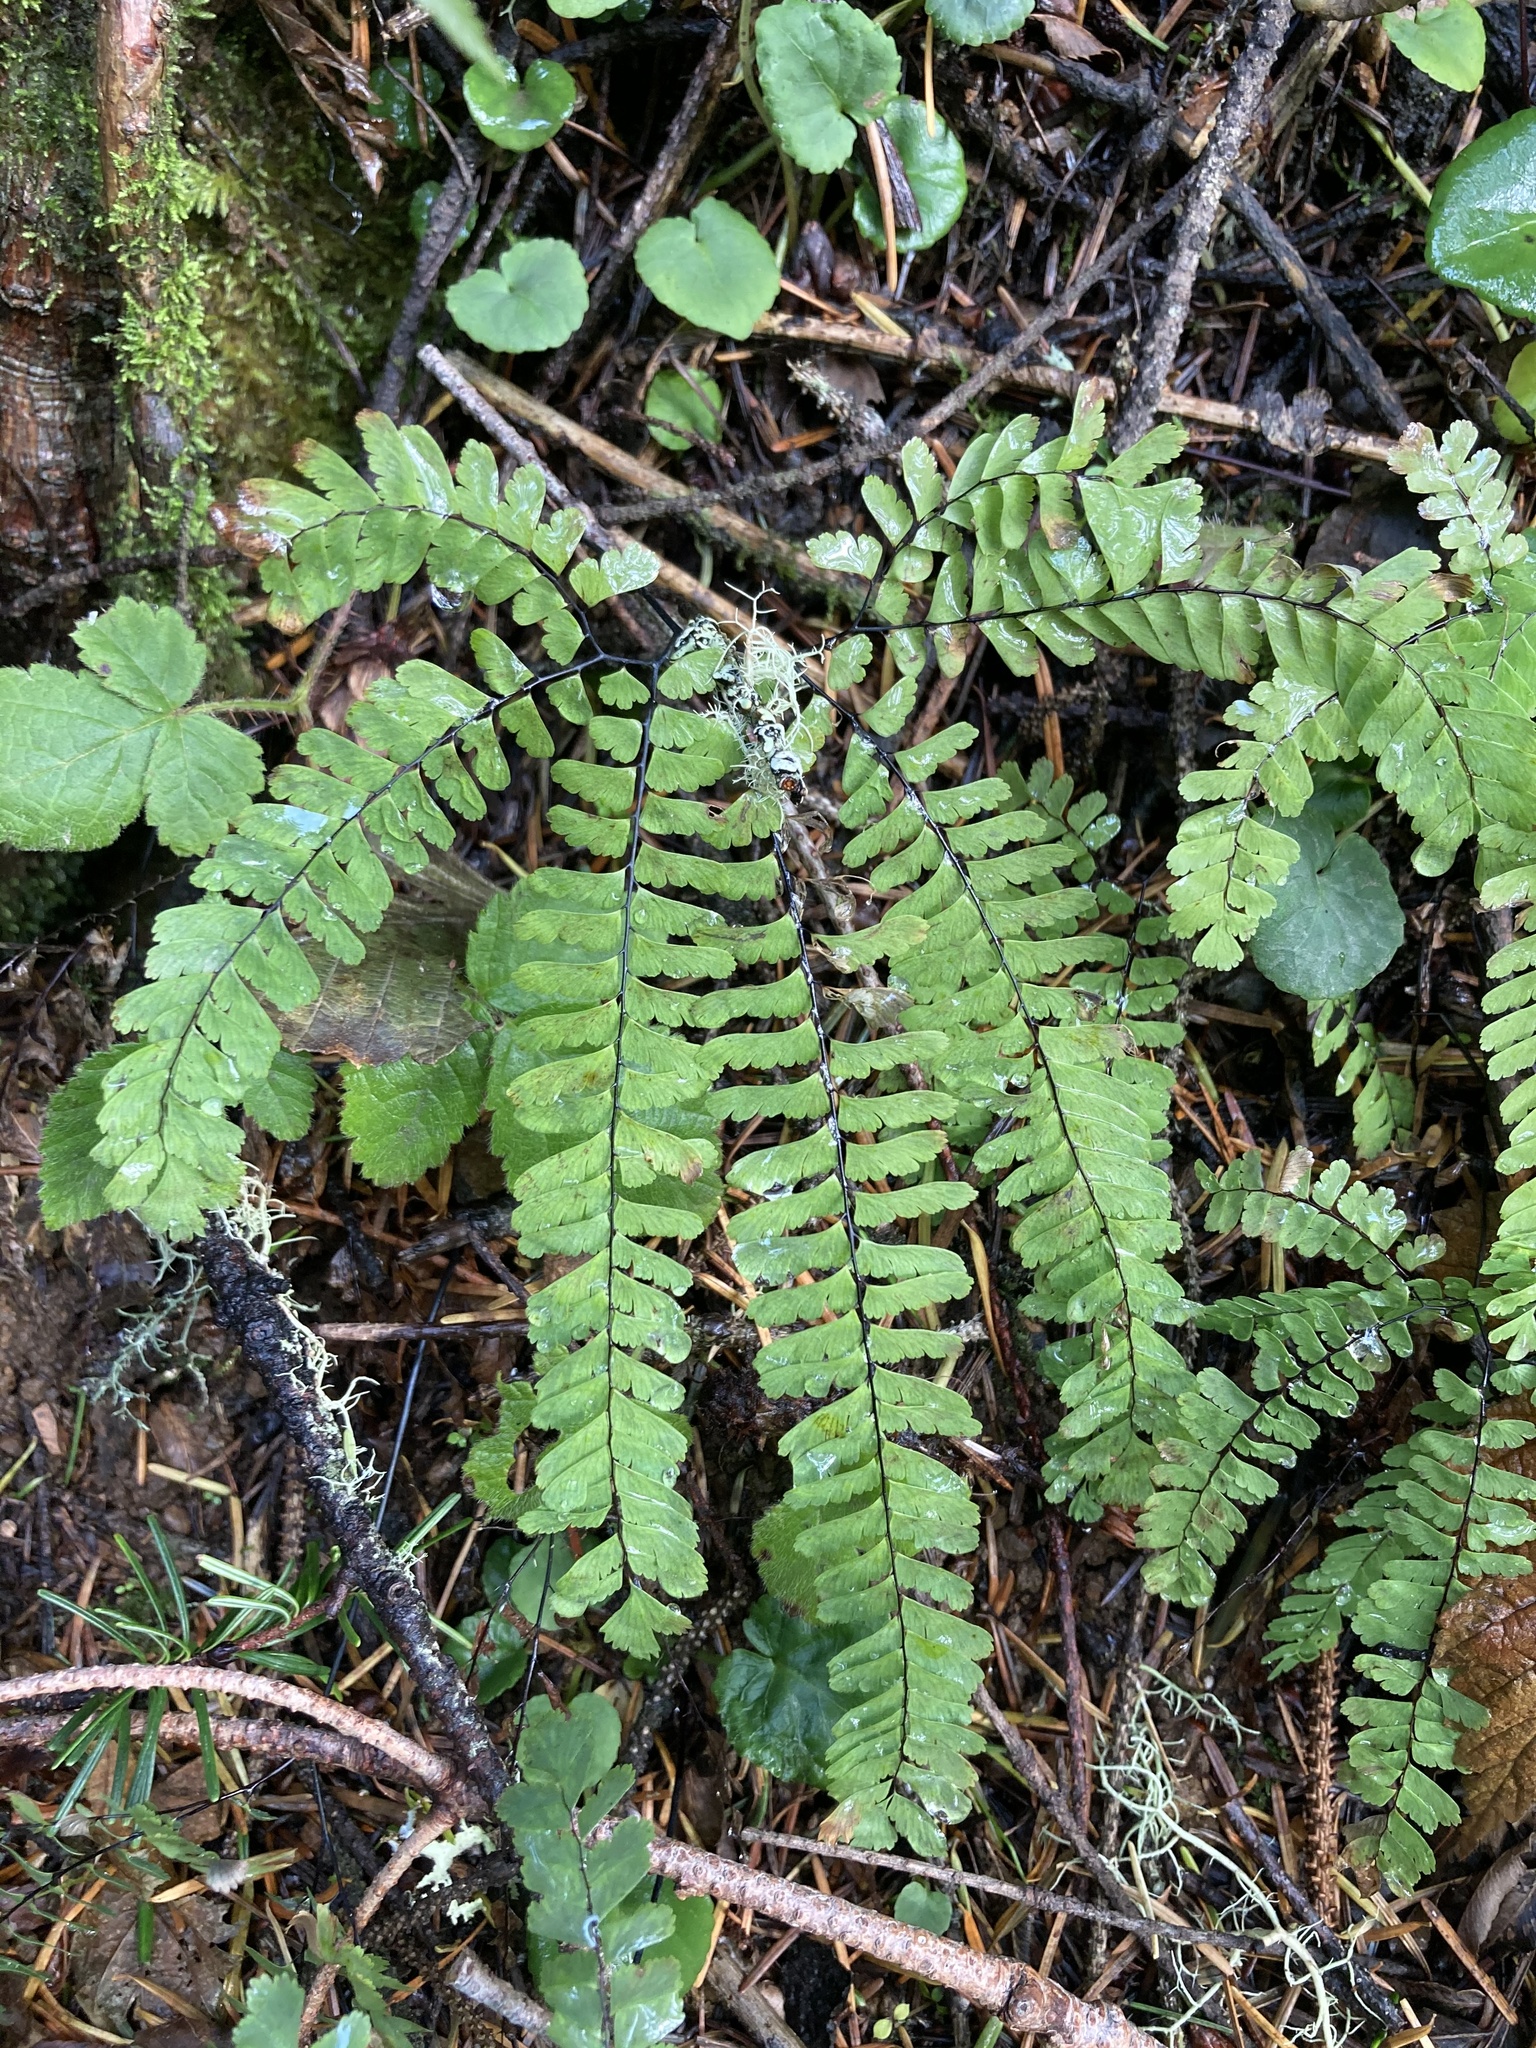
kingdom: Plantae
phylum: Tracheophyta
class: Polypodiopsida
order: Polypodiales
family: Pteridaceae
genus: Adiantum
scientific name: Adiantum aleuticum
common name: Aleutian maidenhair fern
